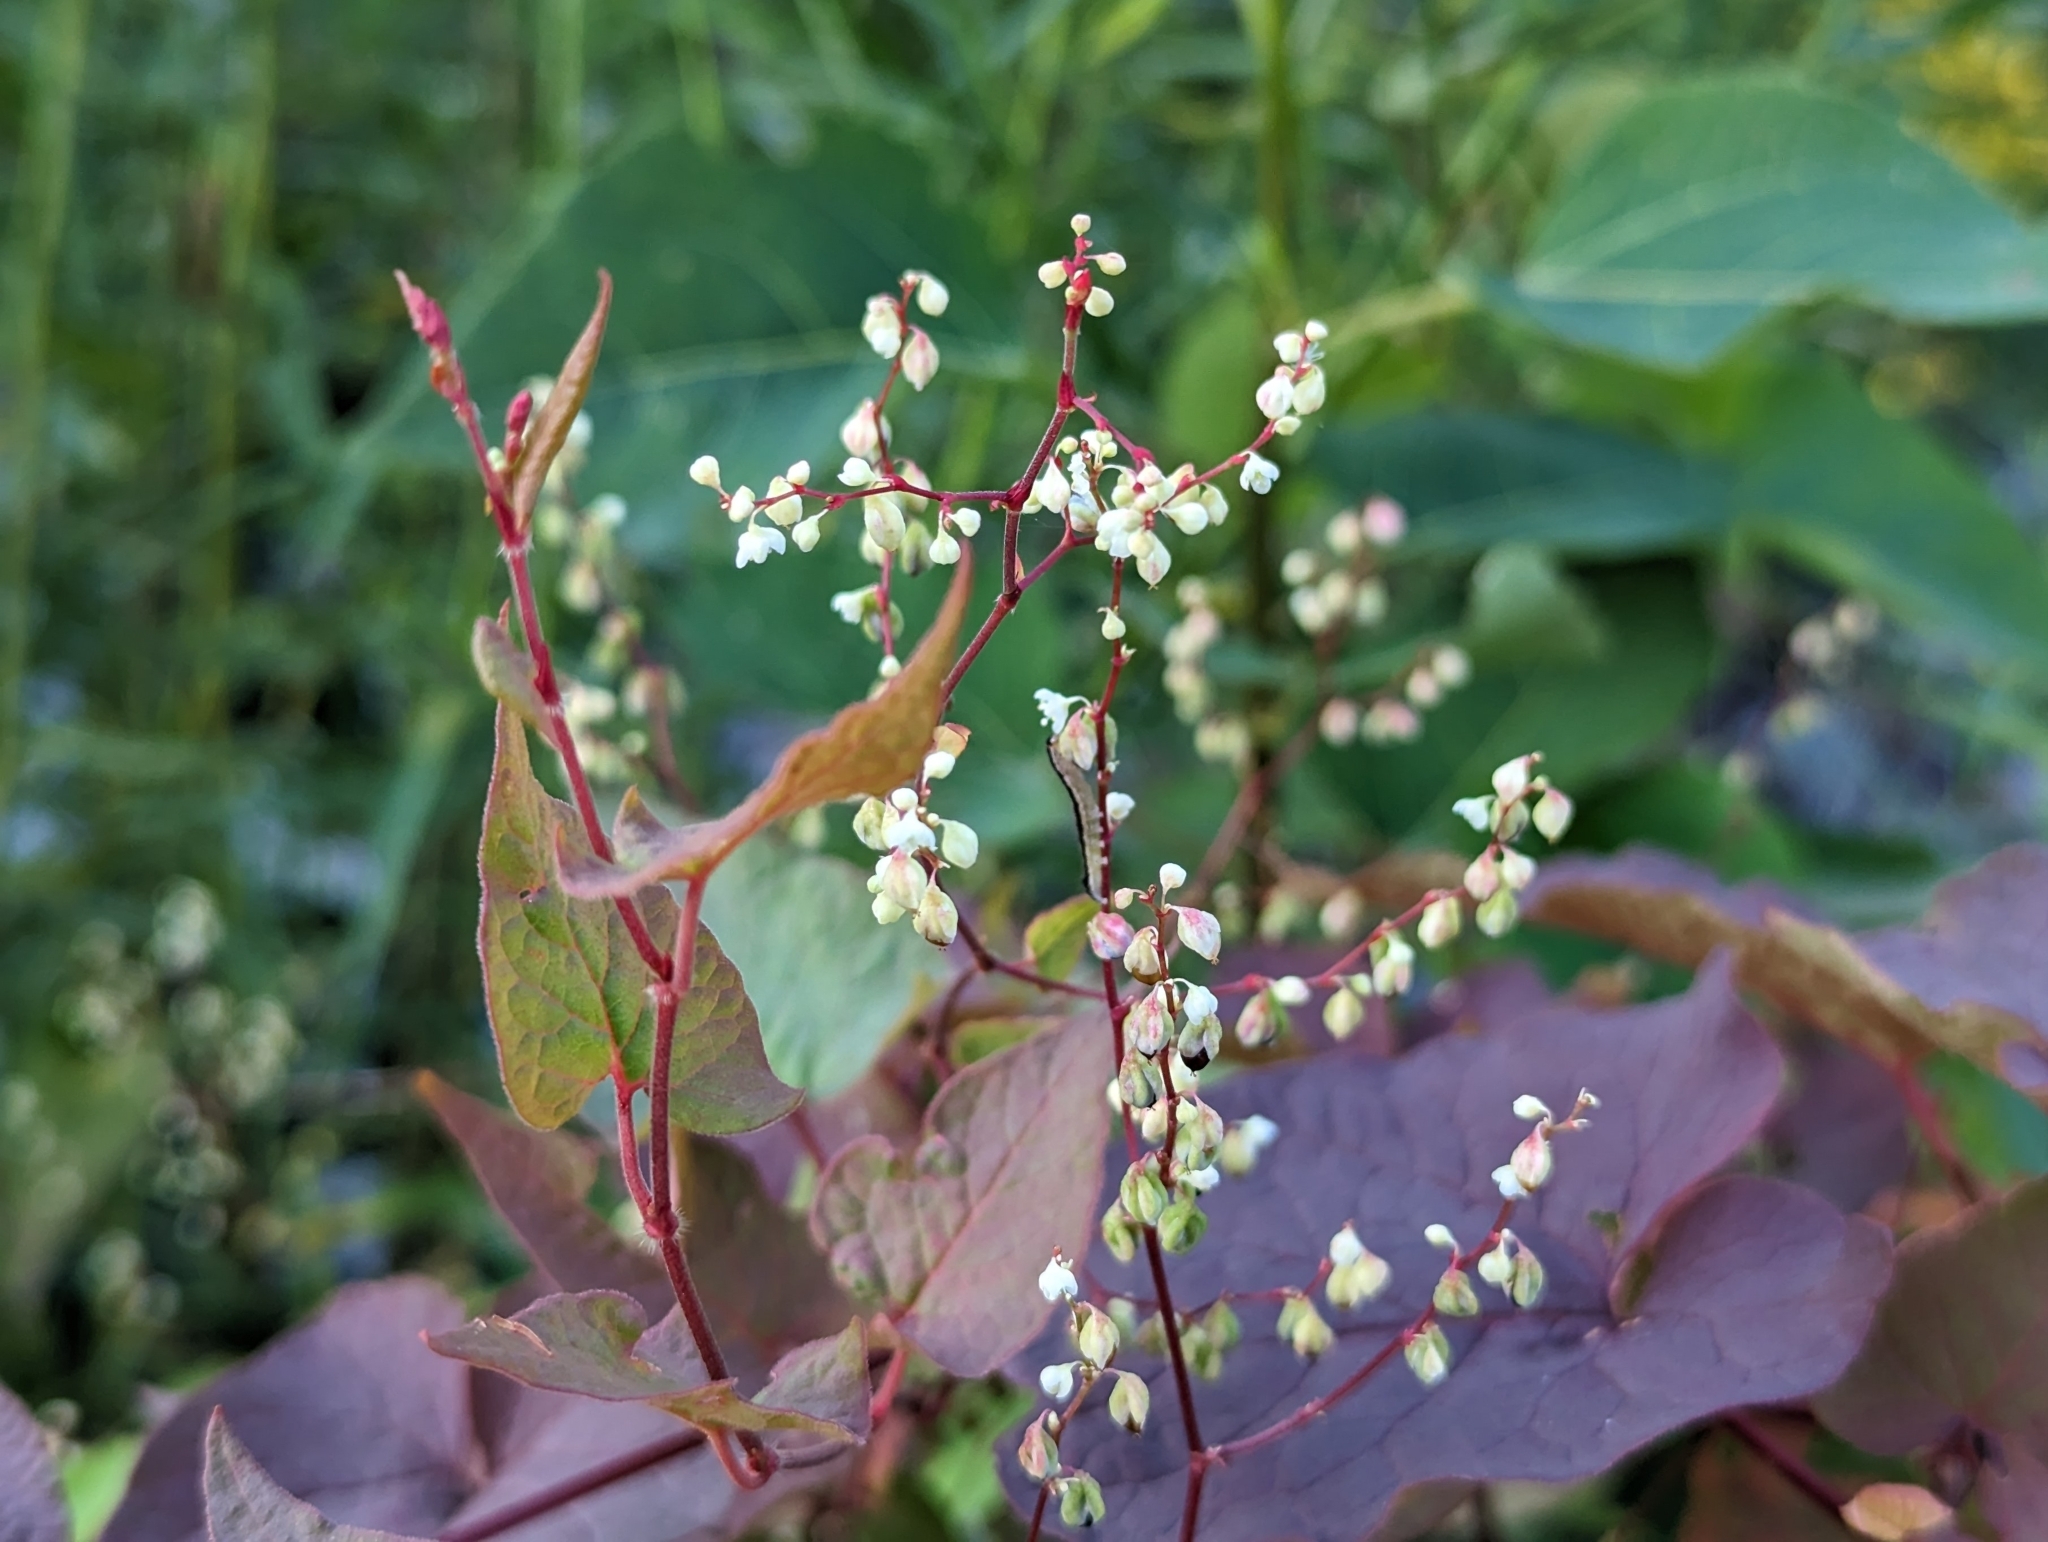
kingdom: Plantae
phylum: Tracheophyta
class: Magnoliopsida
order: Caryophyllales
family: Polygonaceae
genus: Parogonum
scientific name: Parogonum ciliinode
